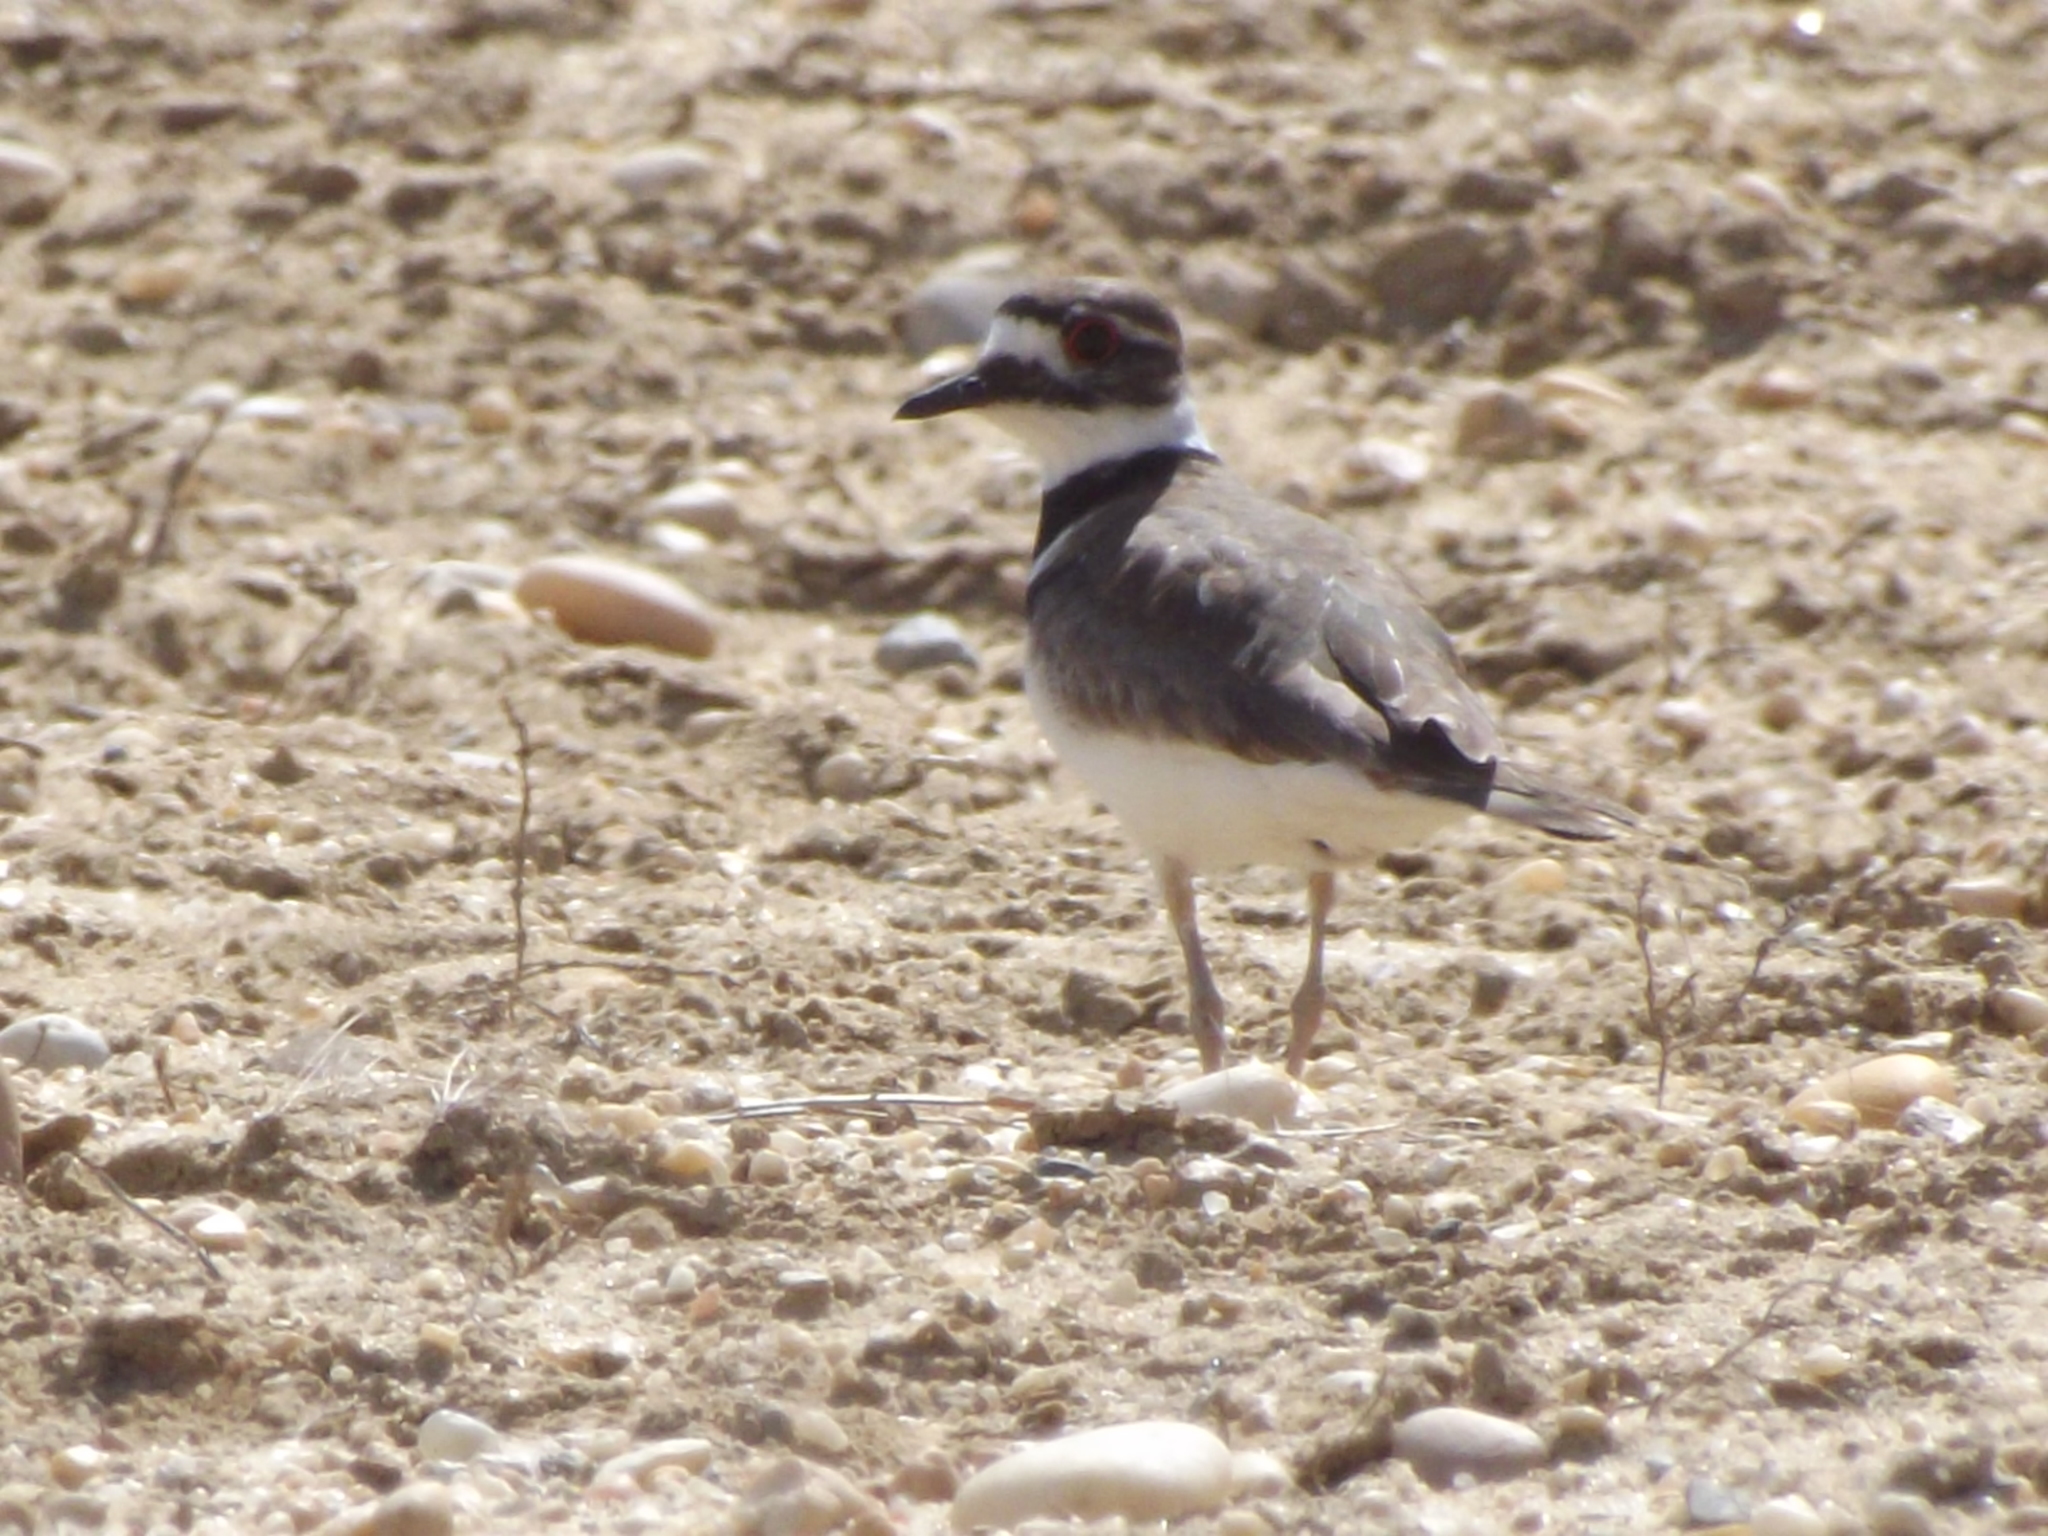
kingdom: Animalia
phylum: Chordata
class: Aves
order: Charadriiformes
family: Charadriidae
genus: Charadrius
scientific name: Charadrius vociferus
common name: Killdeer
